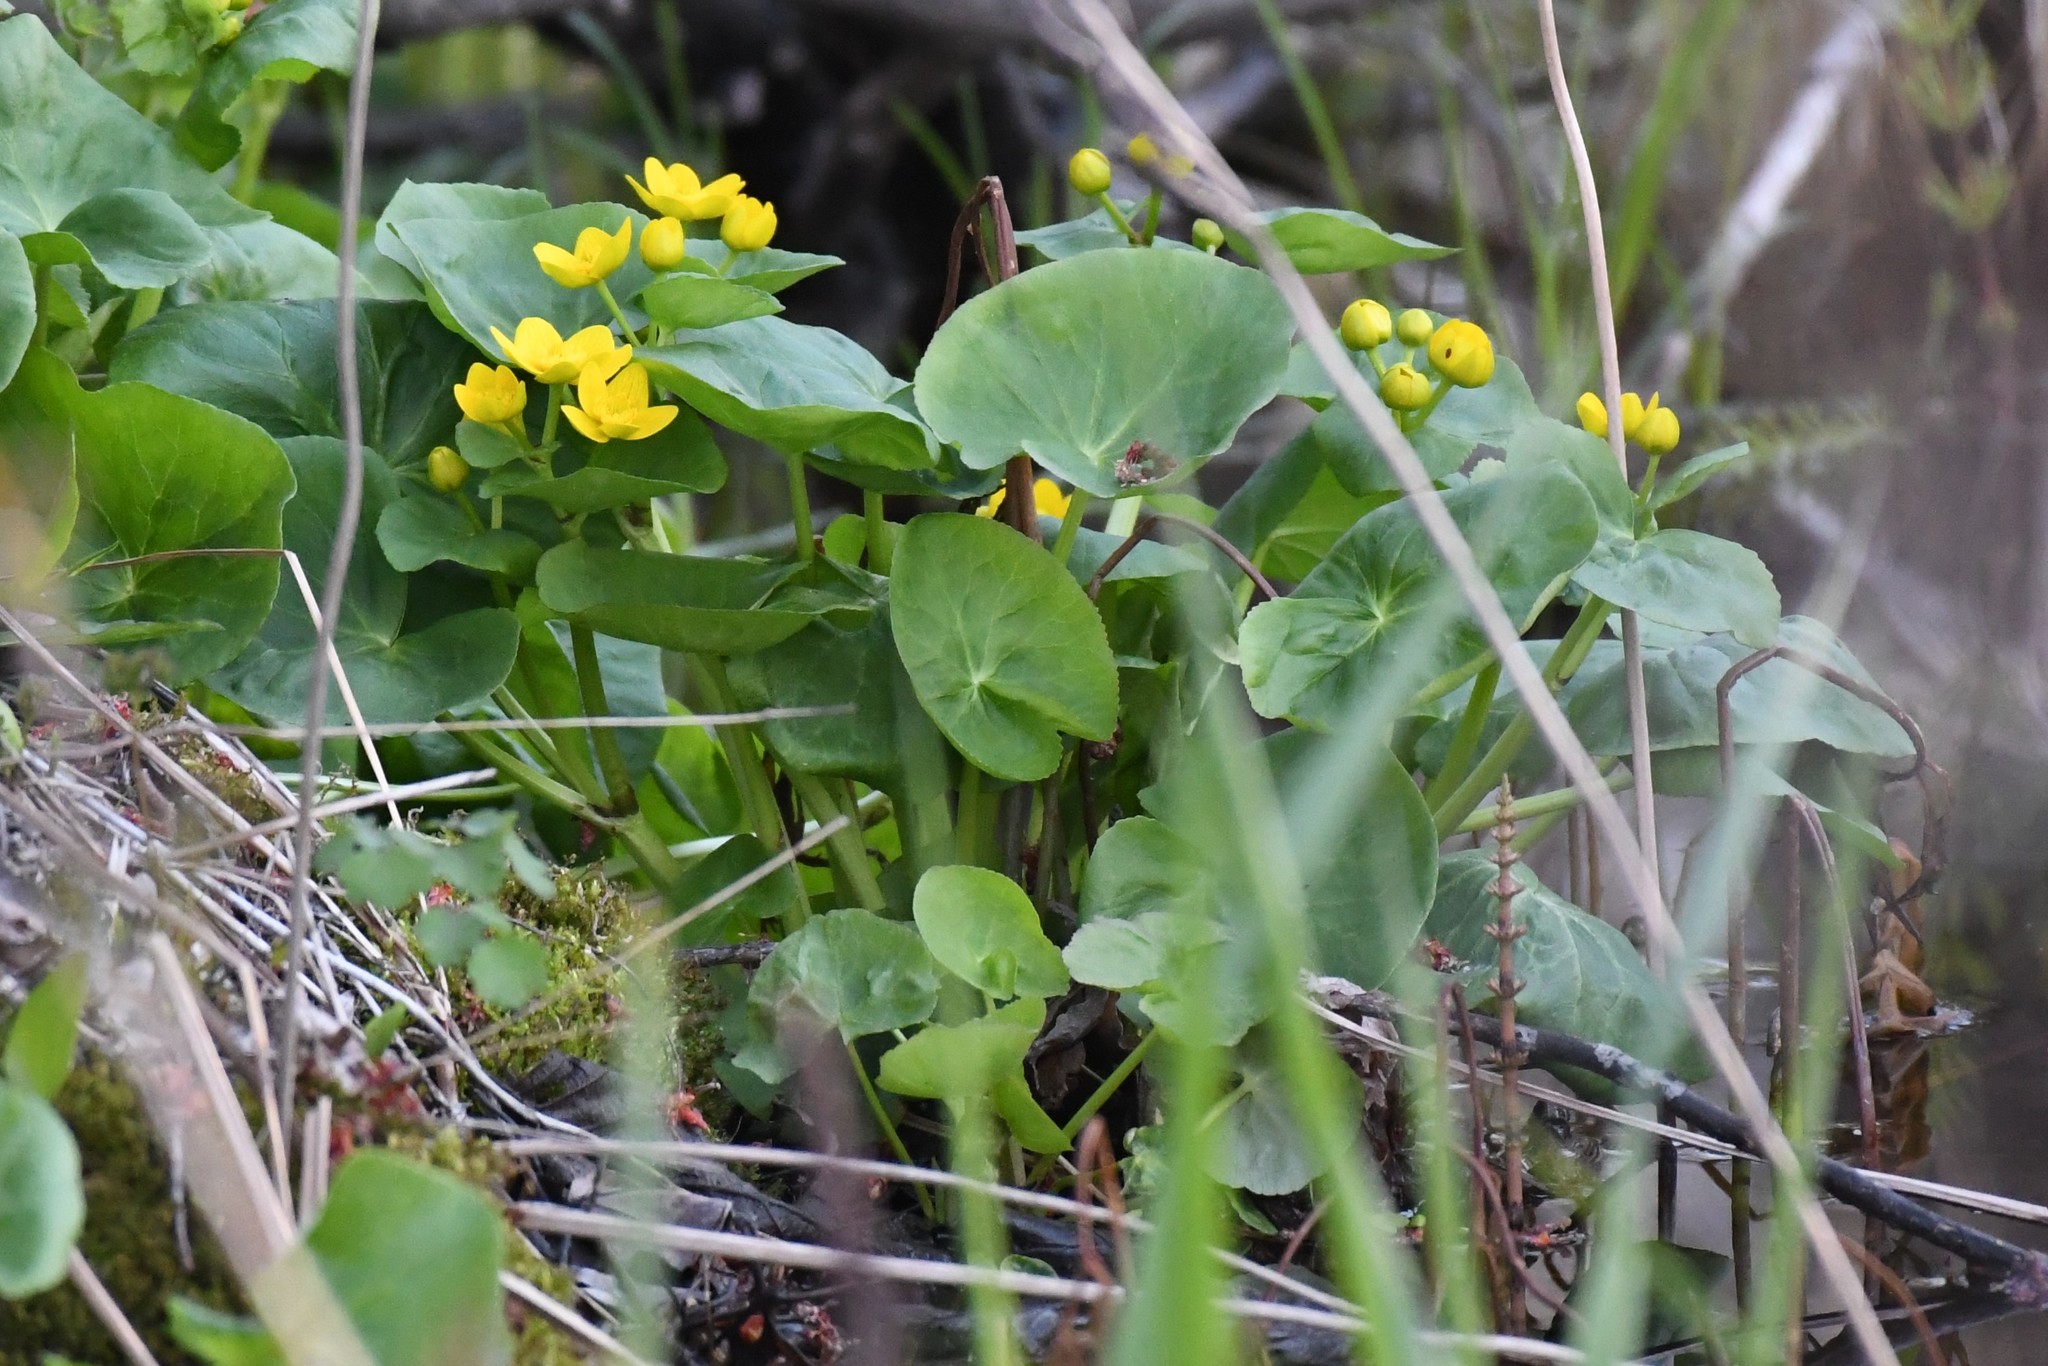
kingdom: Plantae
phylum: Tracheophyta
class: Magnoliopsida
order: Ranunculales
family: Ranunculaceae
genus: Caltha
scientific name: Caltha palustris
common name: Marsh marigold
